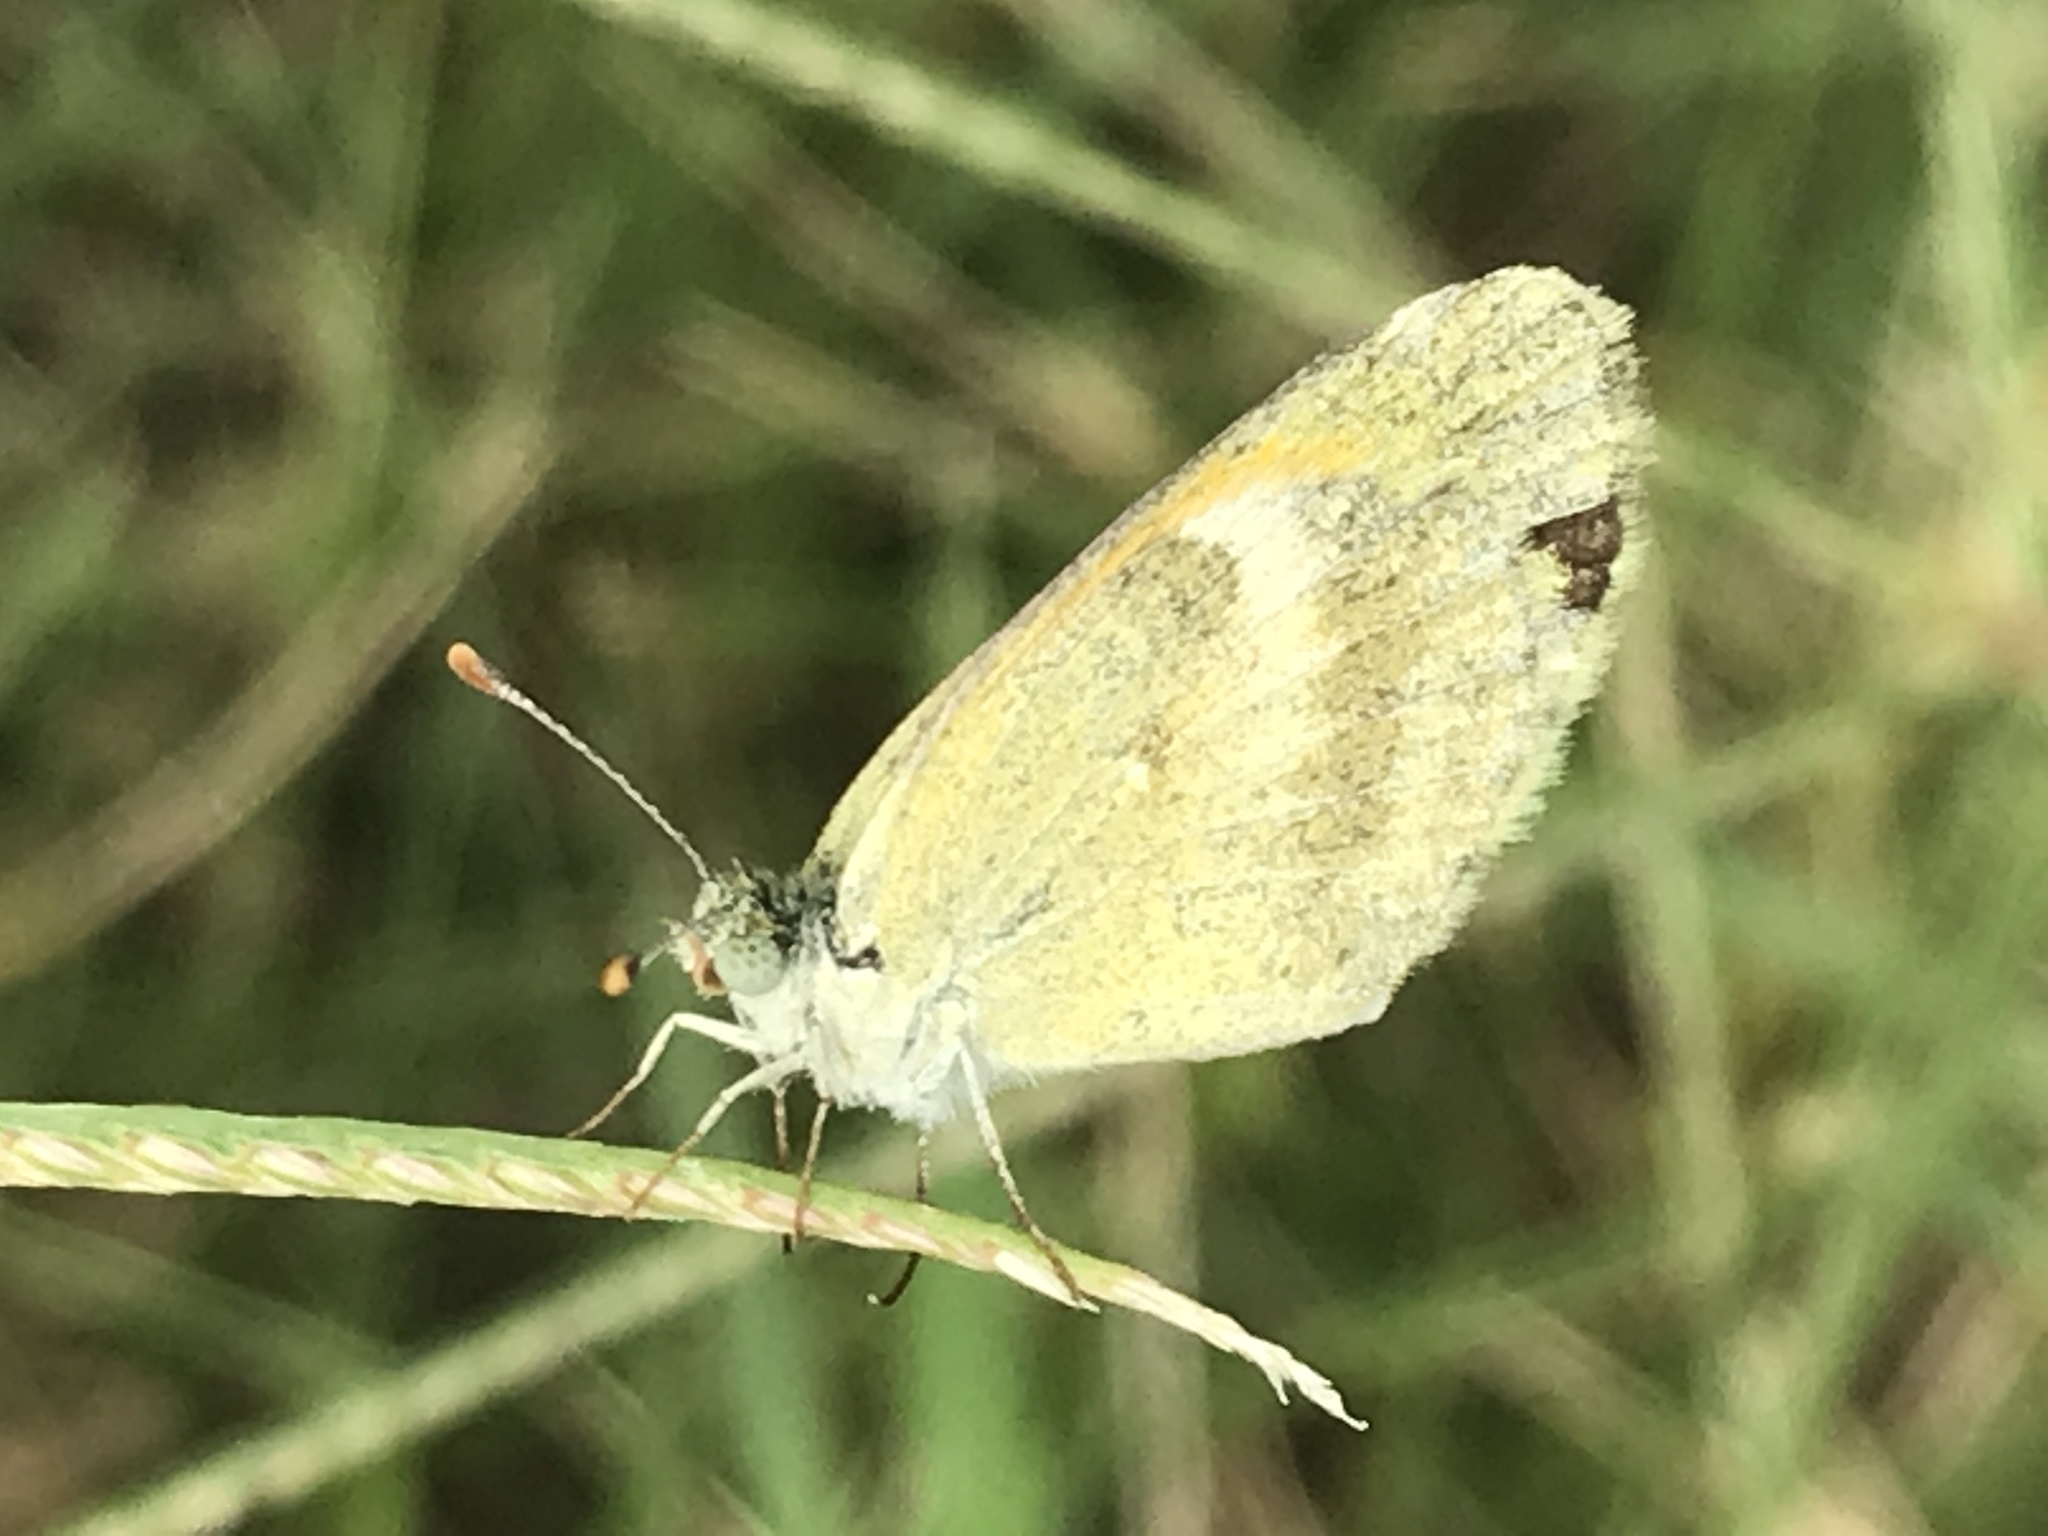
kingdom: Animalia
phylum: Arthropoda
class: Insecta
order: Lepidoptera
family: Pieridae
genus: Nathalis
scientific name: Nathalis iole
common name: Dainty sulphur
